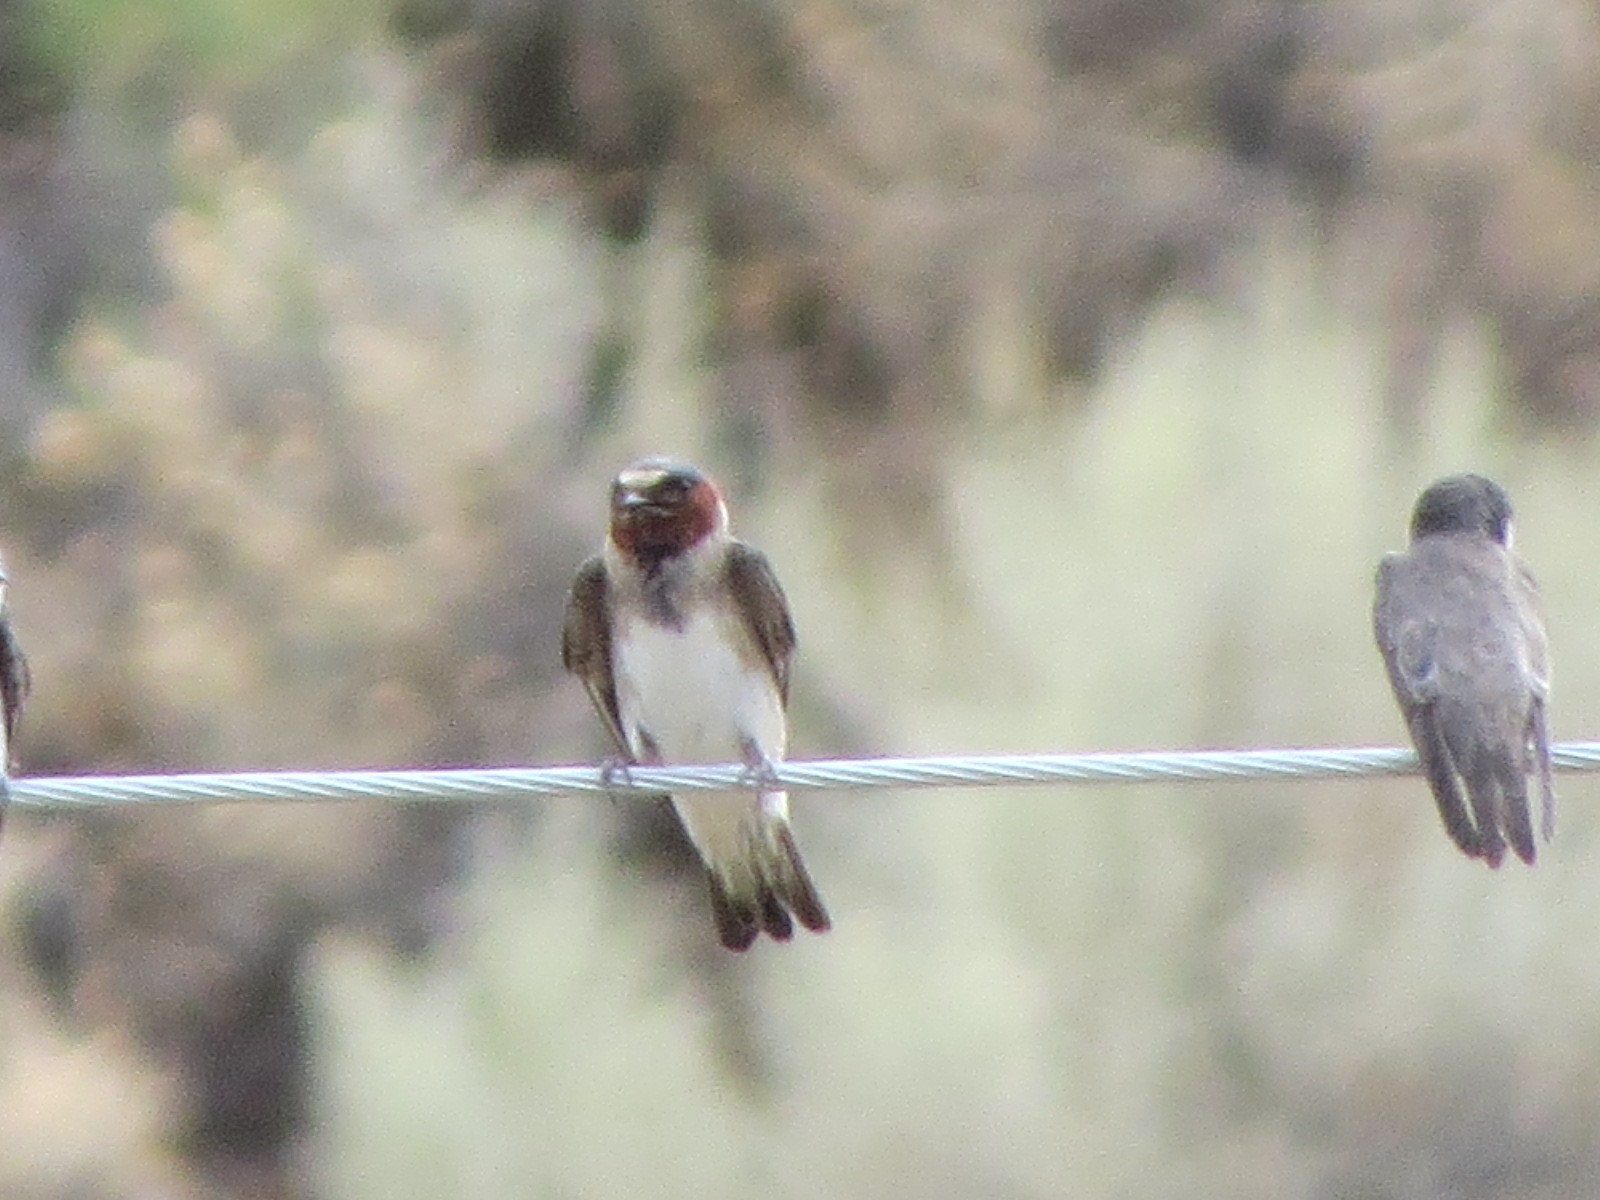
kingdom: Animalia
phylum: Chordata
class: Aves
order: Passeriformes
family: Hirundinidae
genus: Petrochelidon
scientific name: Petrochelidon pyrrhonota
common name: American cliff swallow
